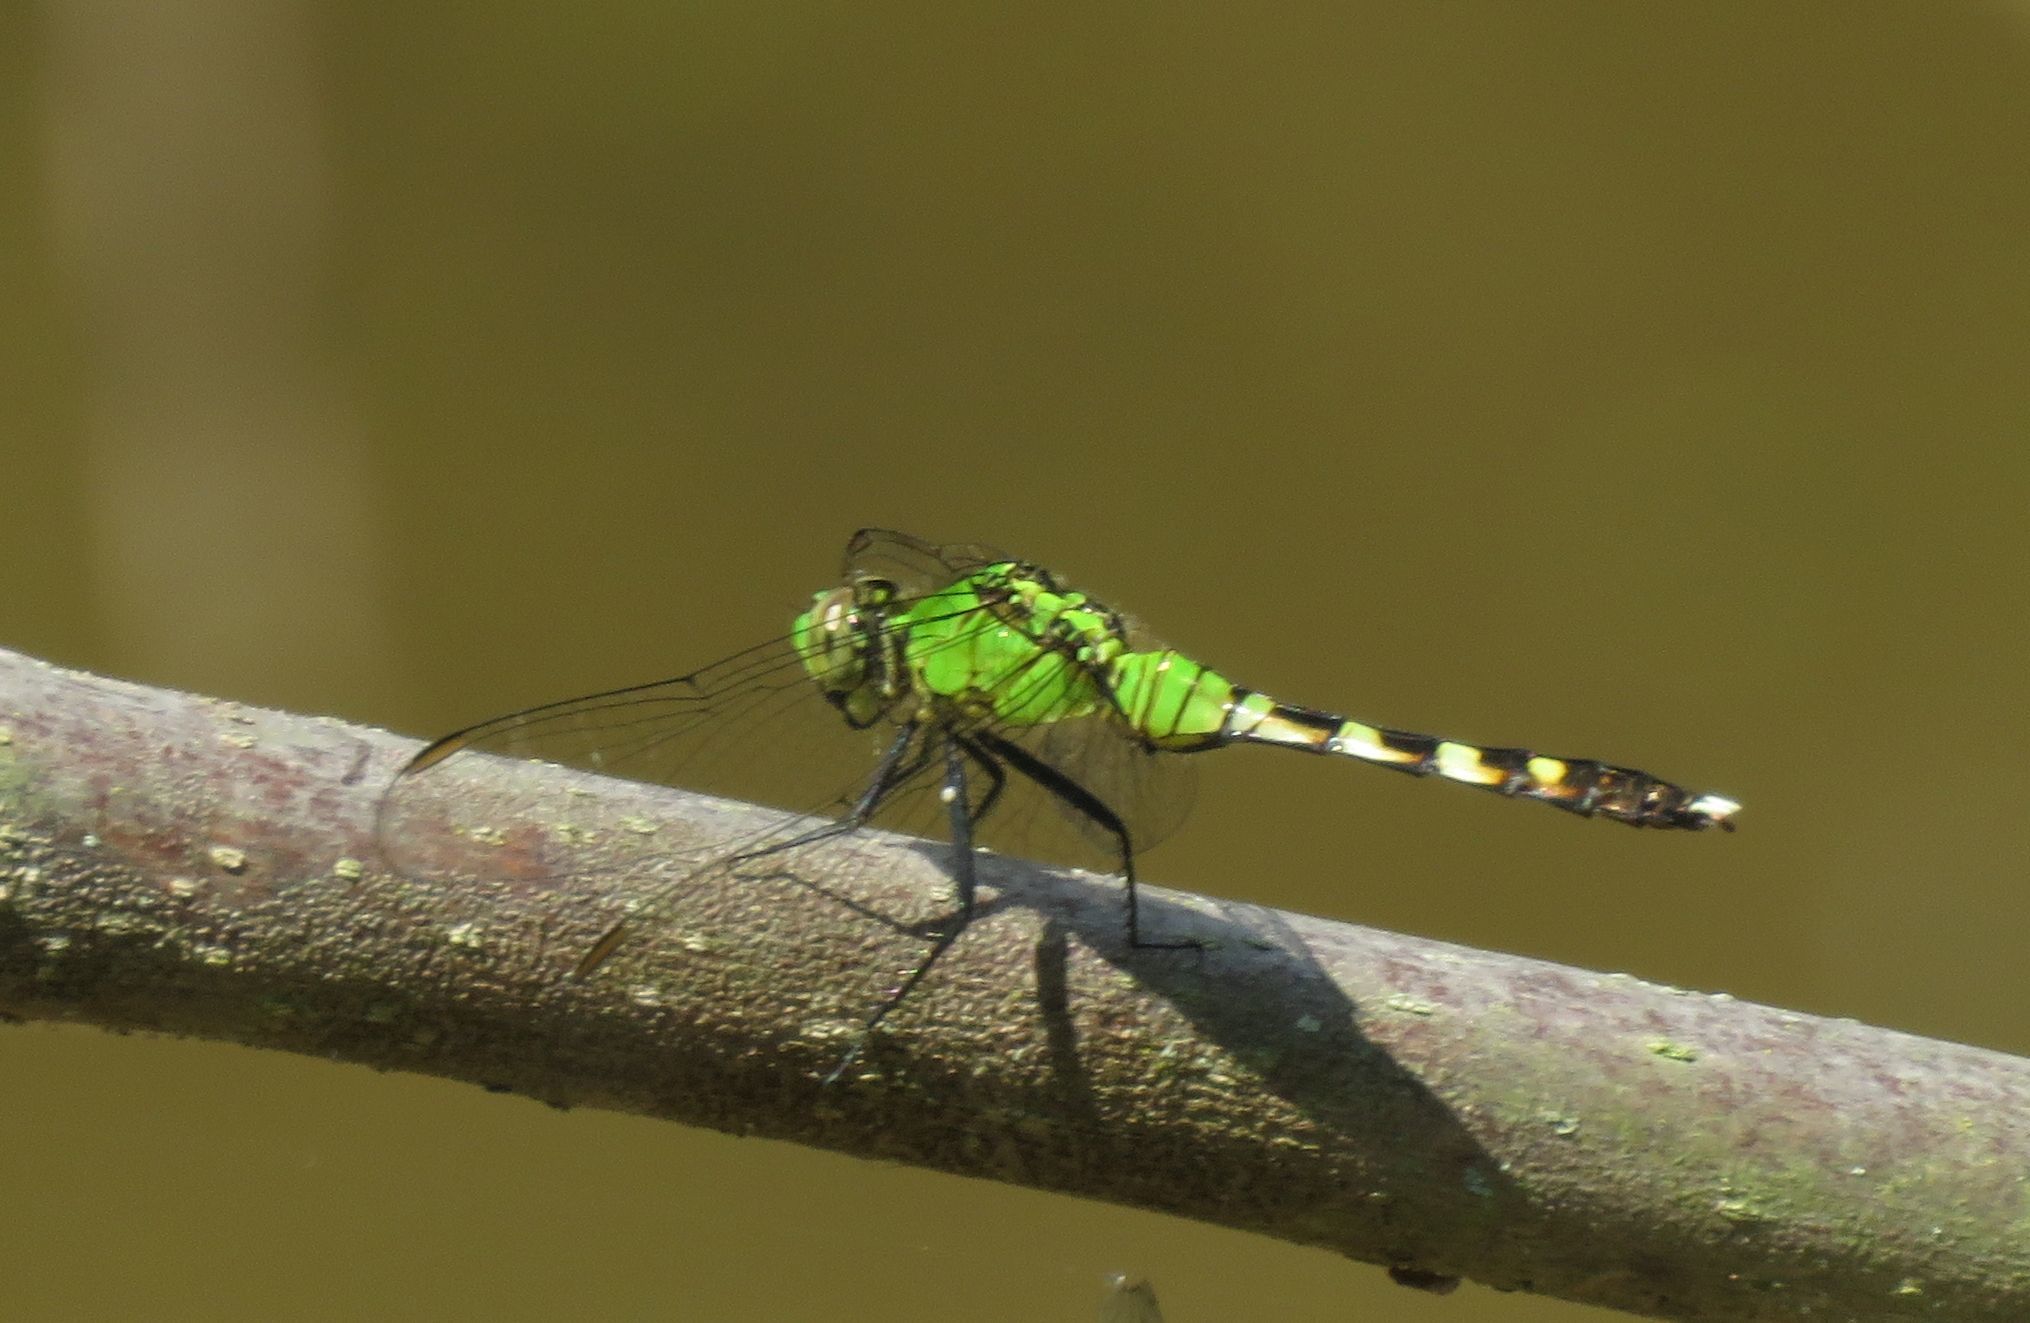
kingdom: Animalia
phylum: Arthropoda
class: Insecta
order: Odonata
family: Libellulidae
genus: Erythemis
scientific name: Erythemis simplicicollis
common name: Eastern pondhawk
